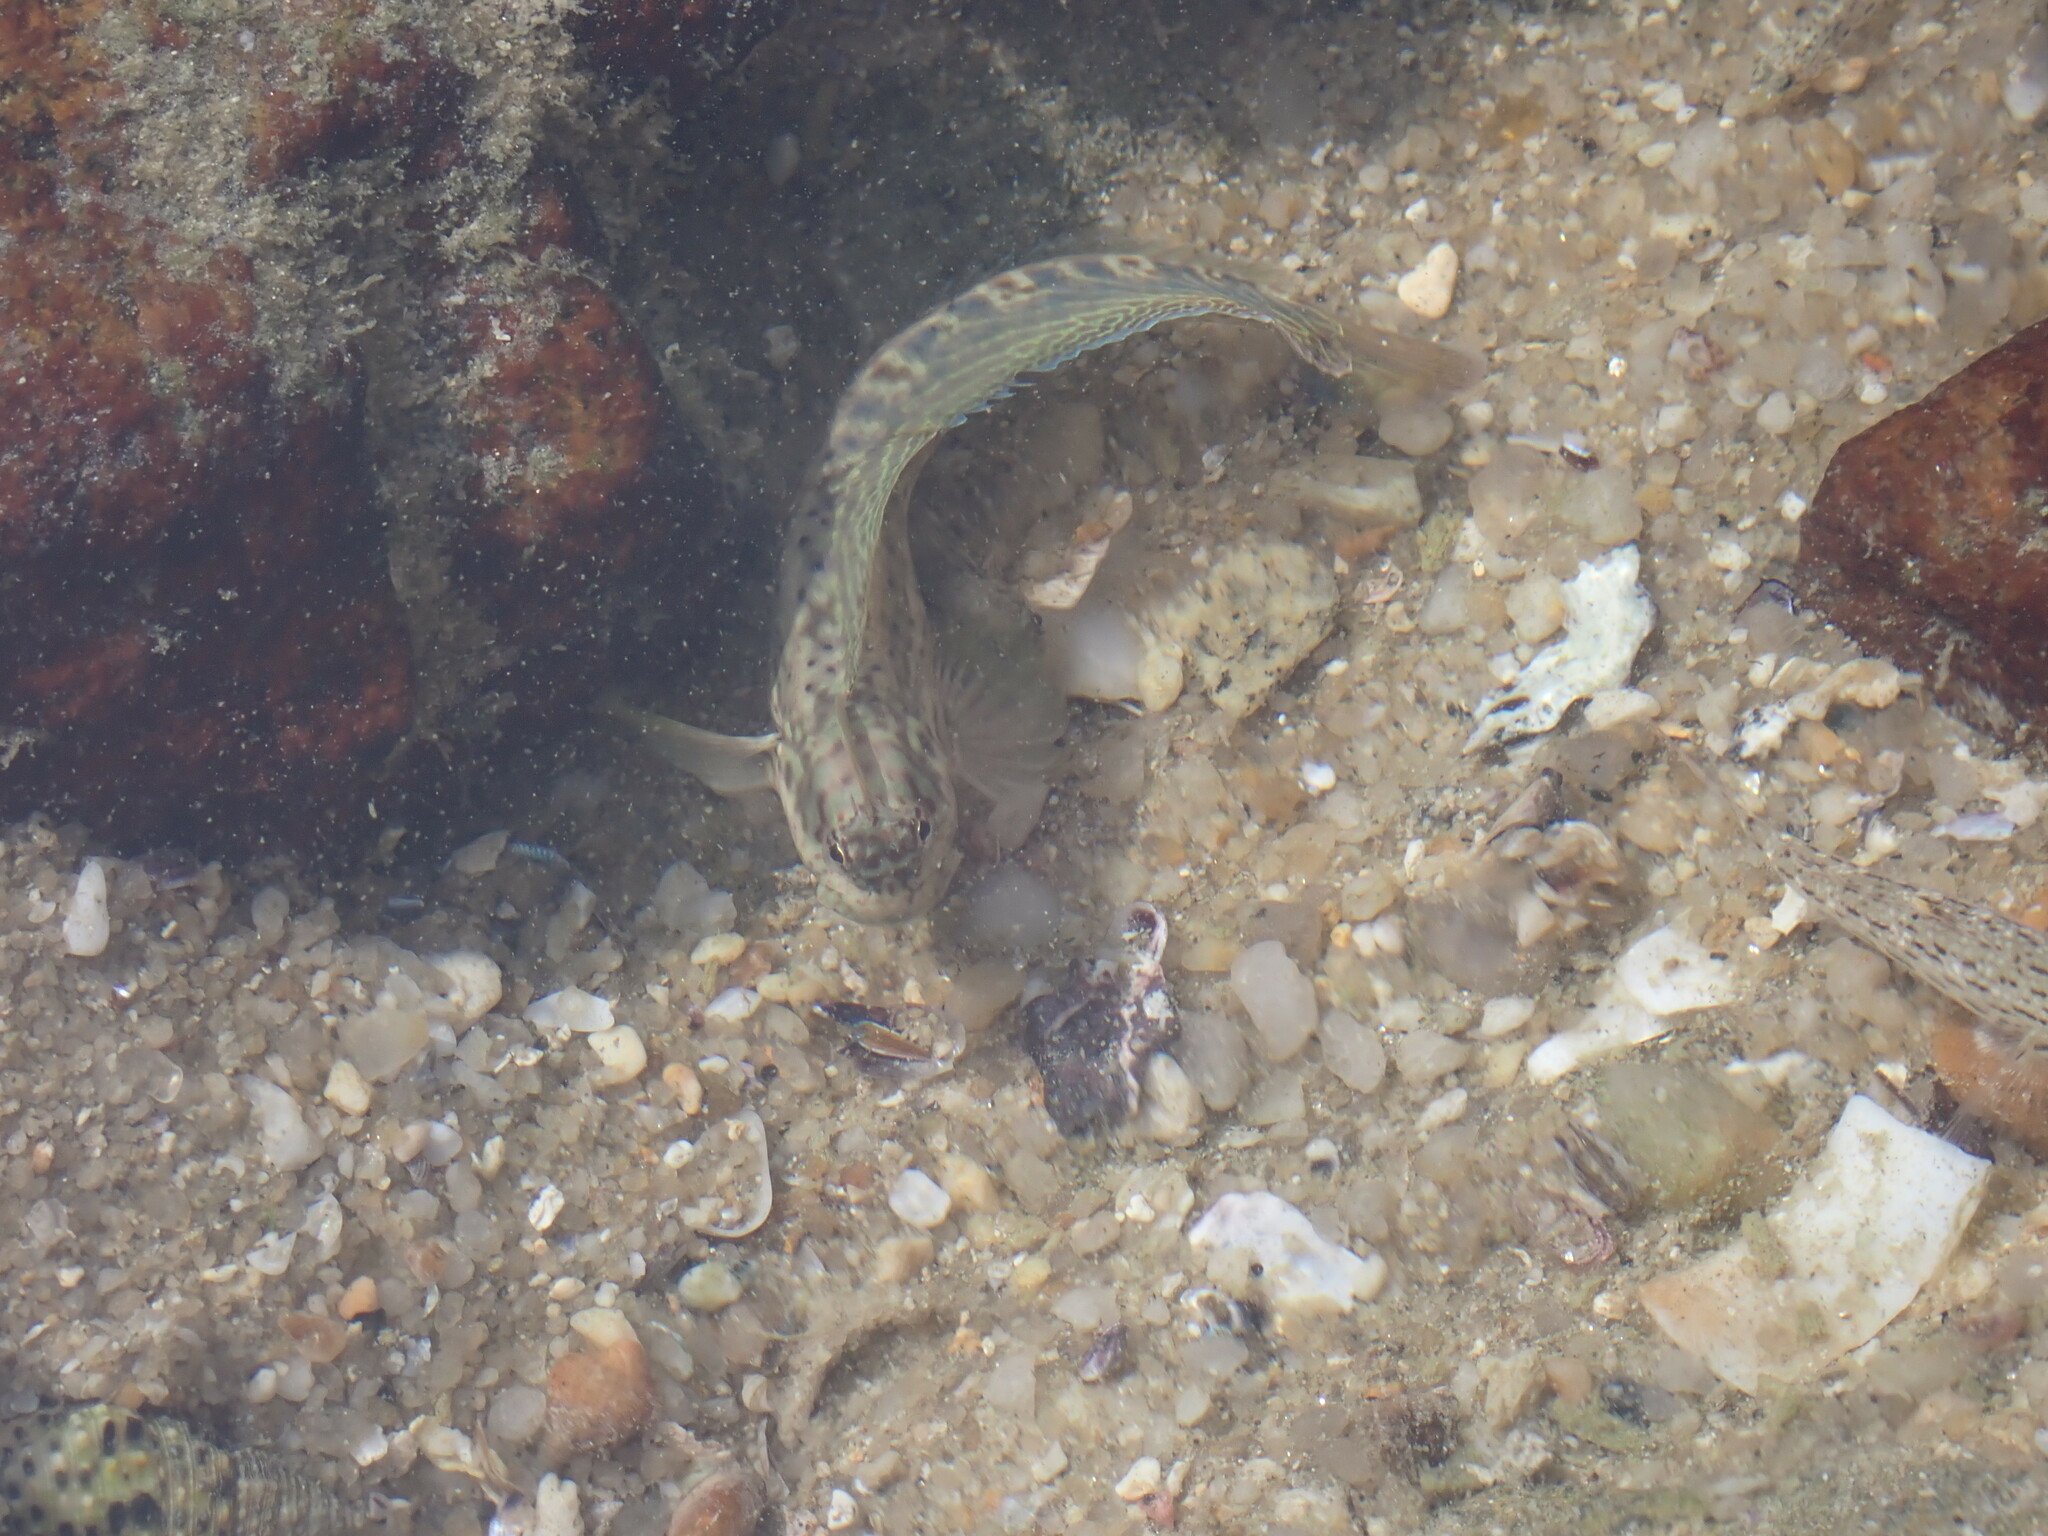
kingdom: Animalia
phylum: Chordata
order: Perciformes
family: Blenniidae
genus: Istiblennius
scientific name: Istiblennius dussumieri
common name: Dussumier's rockskipper
